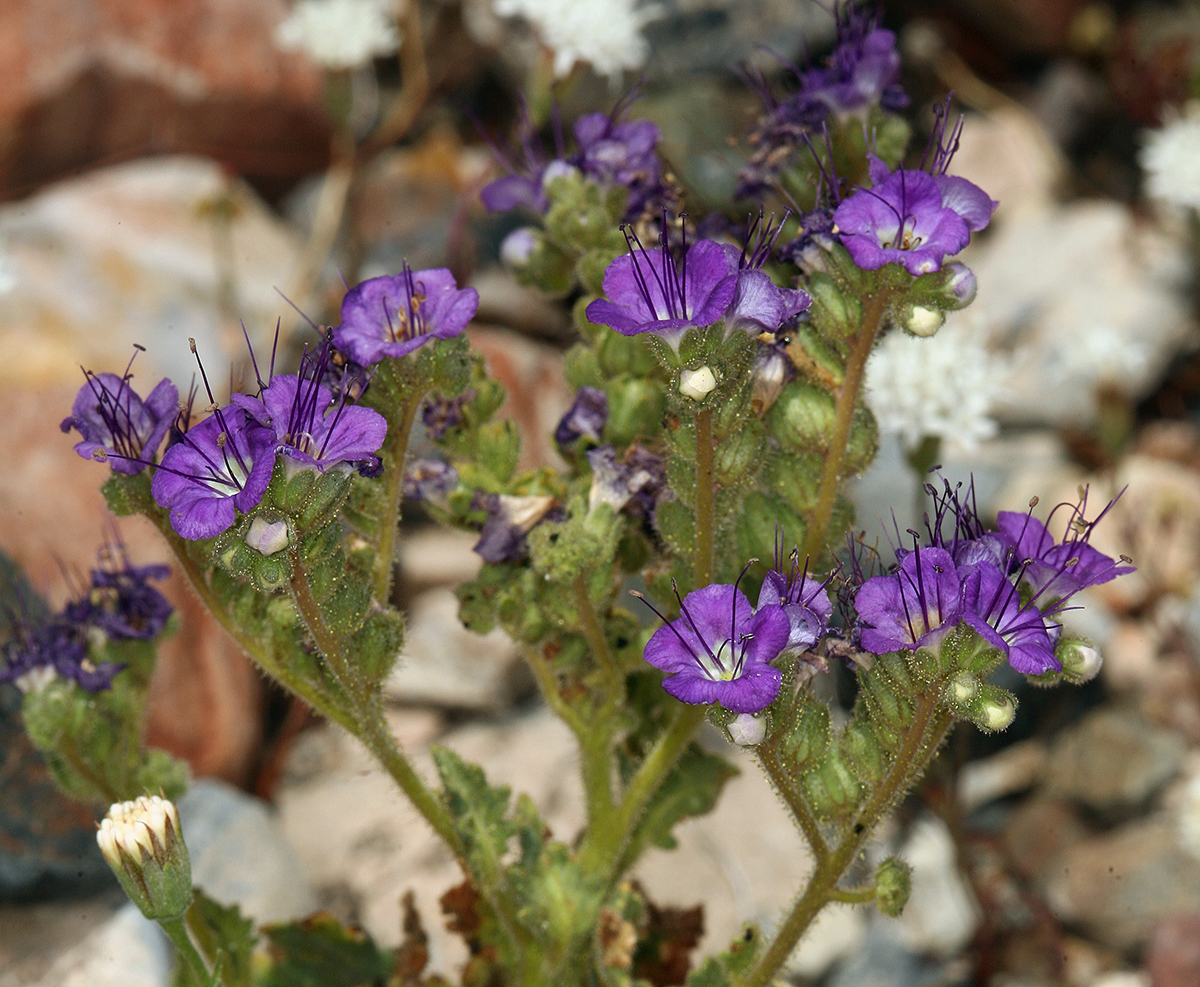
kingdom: Plantae
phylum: Tracheophyta
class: Magnoliopsida
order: Boraginales
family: Hydrophyllaceae
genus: Phacelia
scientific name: Phacelia crenulata
